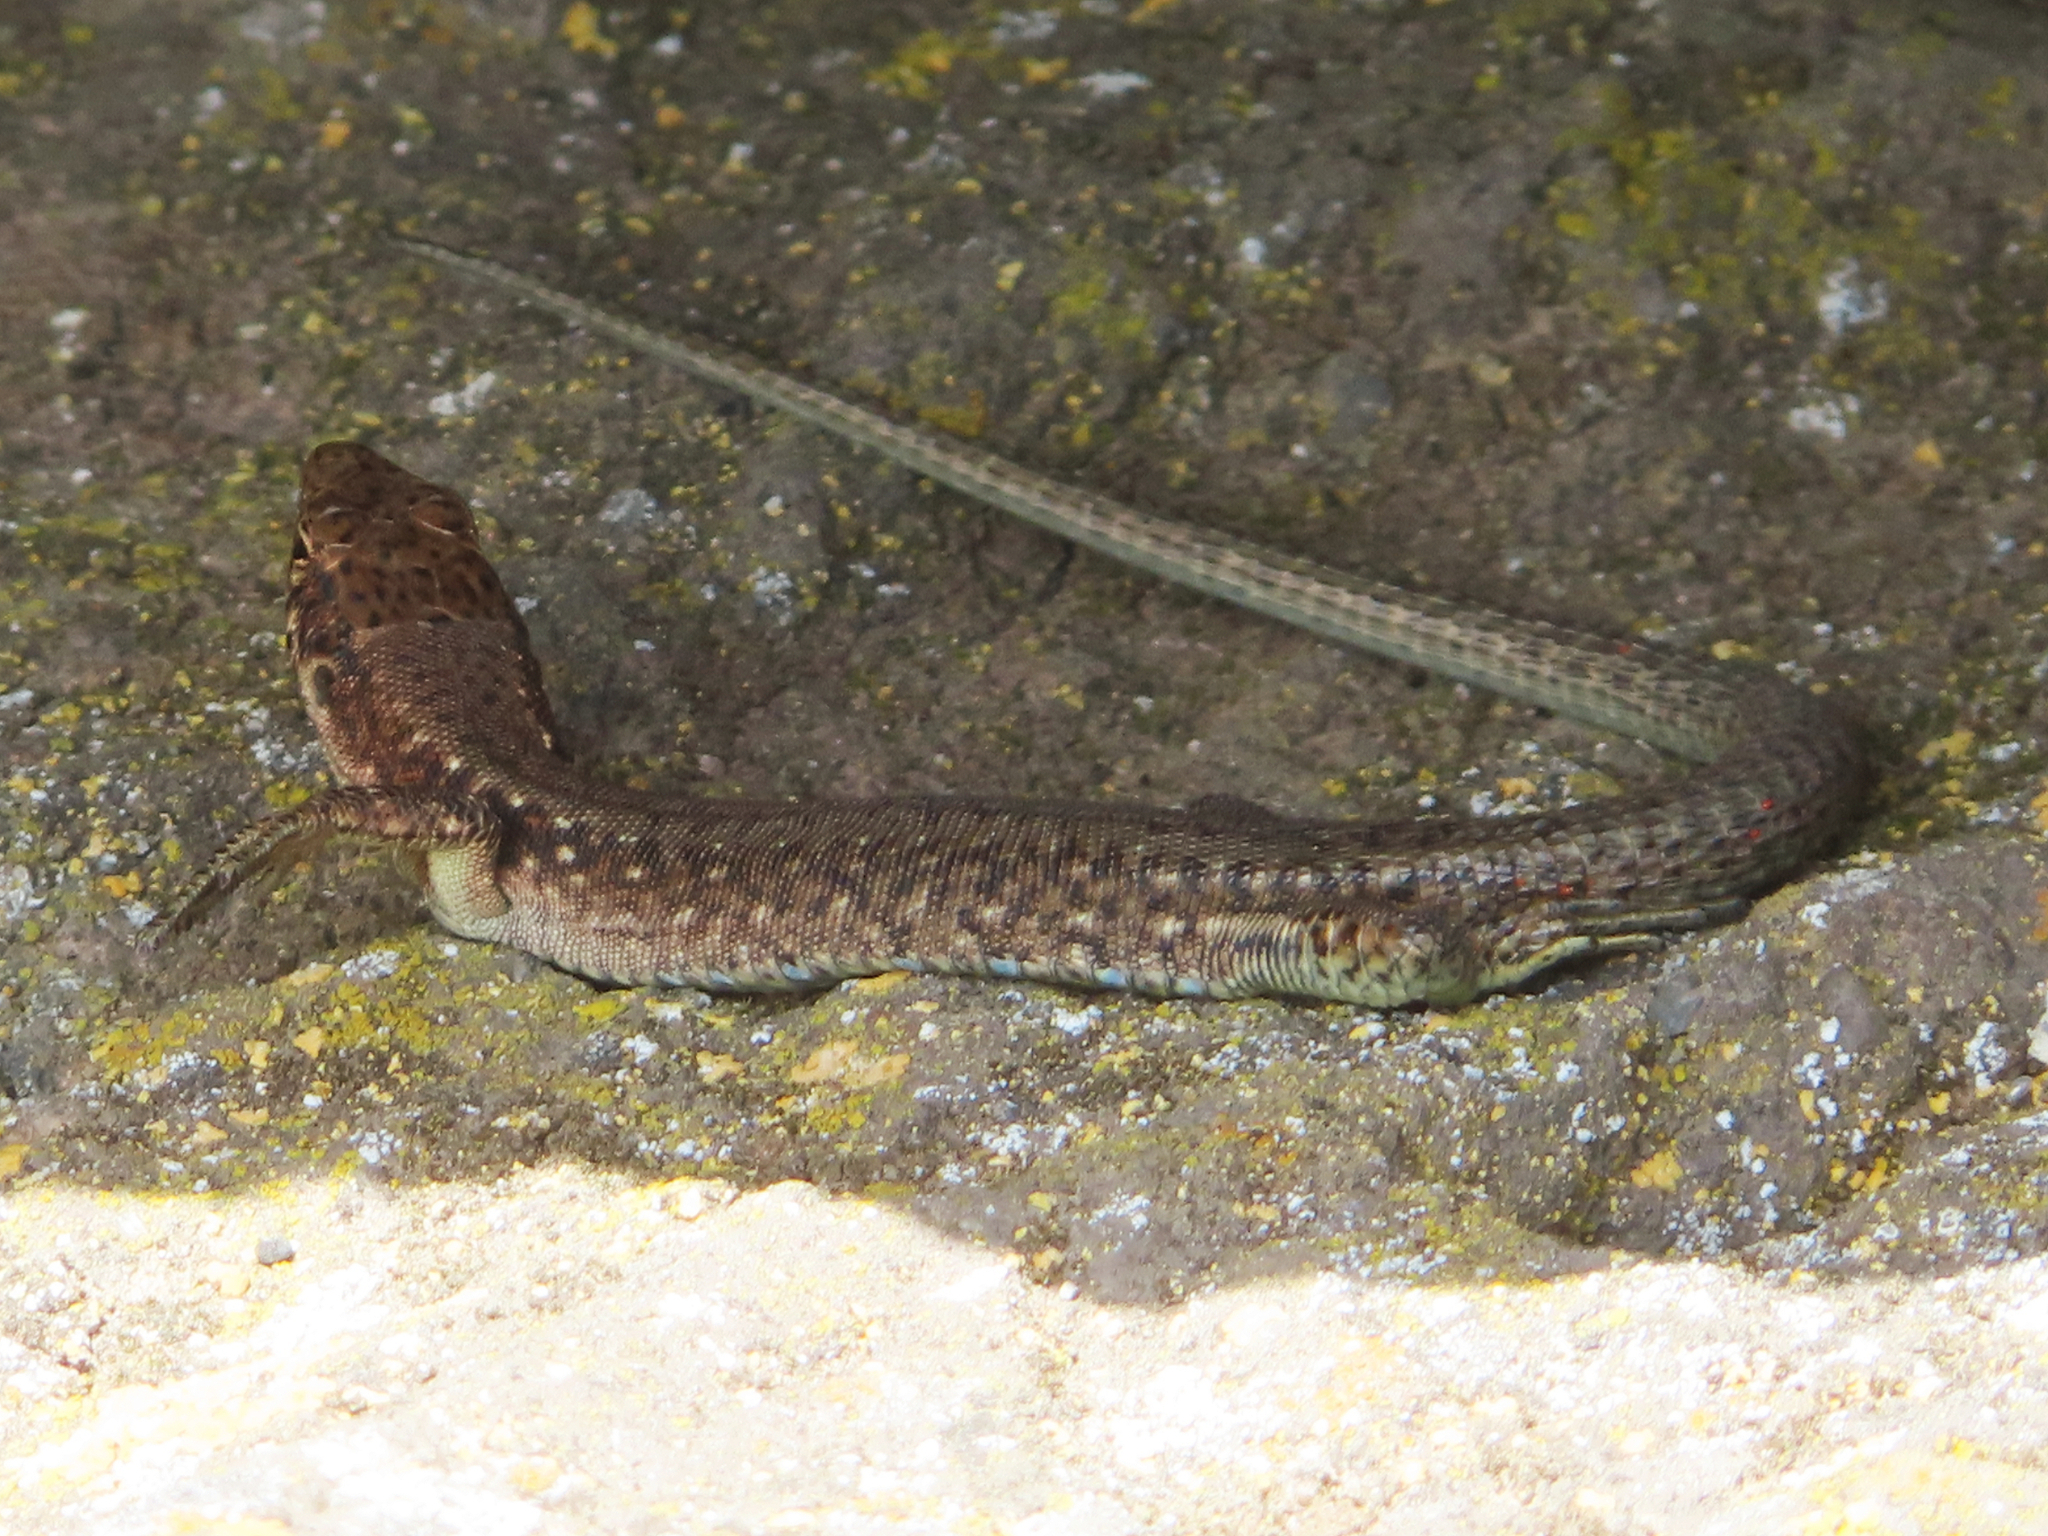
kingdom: Animalia
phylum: Chordata
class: Squamata
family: Lacertidae
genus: Darevskia
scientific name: Darevskia
